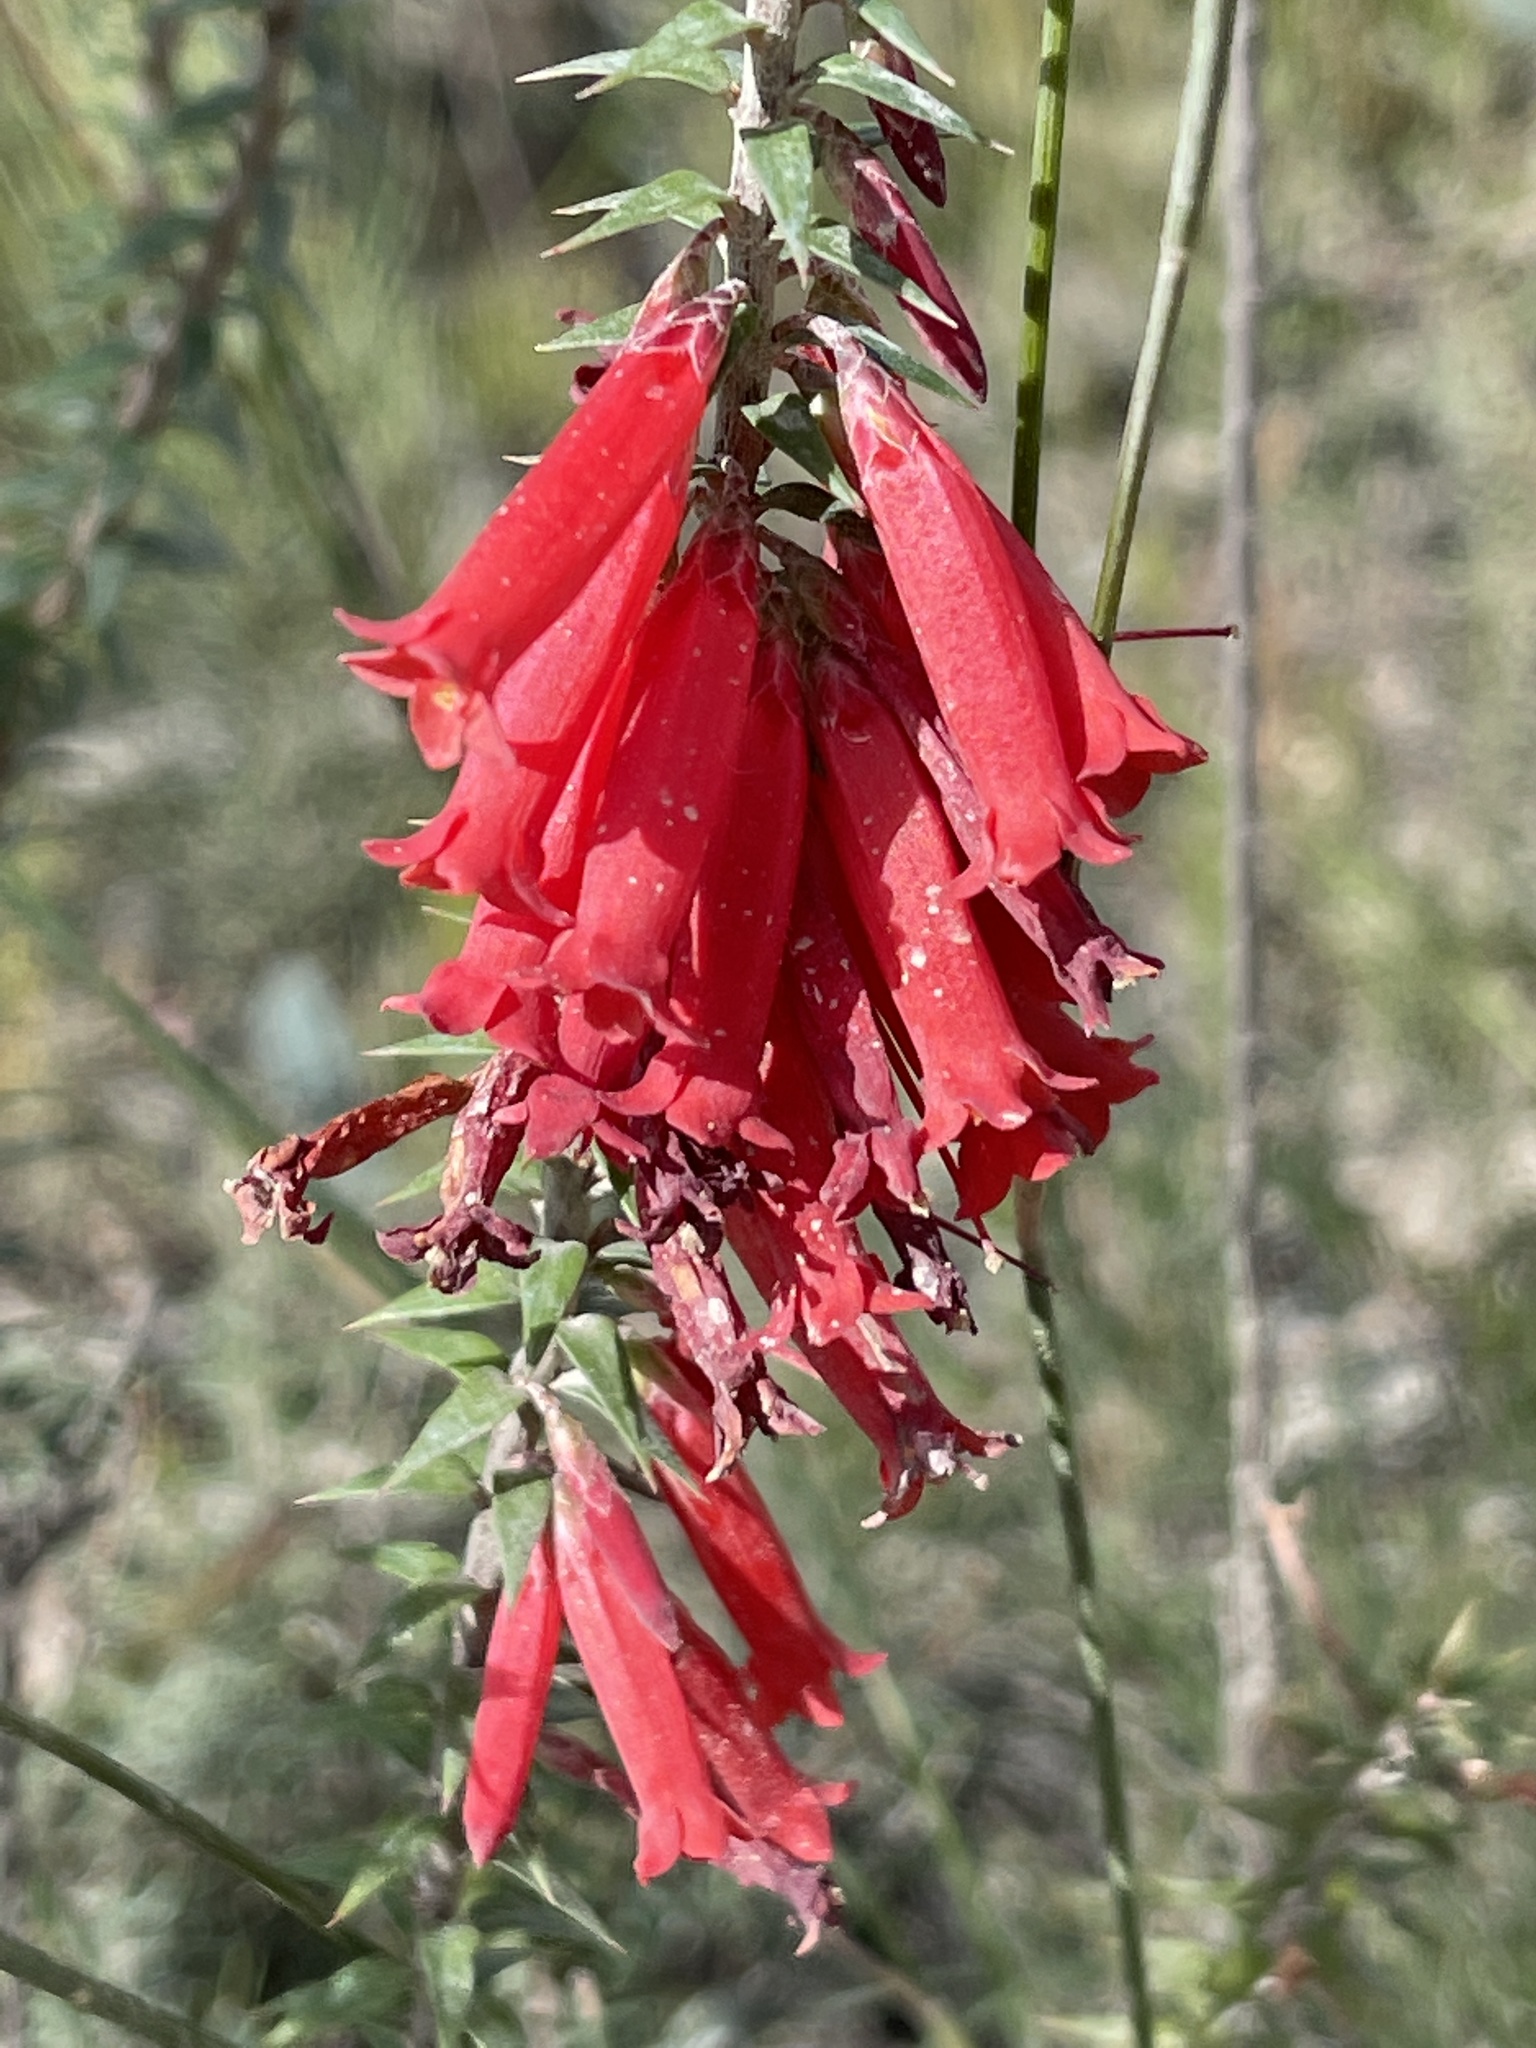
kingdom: Plantae
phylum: Tracheophyta
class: Magnoliopsida
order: Ericales
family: Ericaceae
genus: Epacris
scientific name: Epacris impressa
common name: Common-heath
